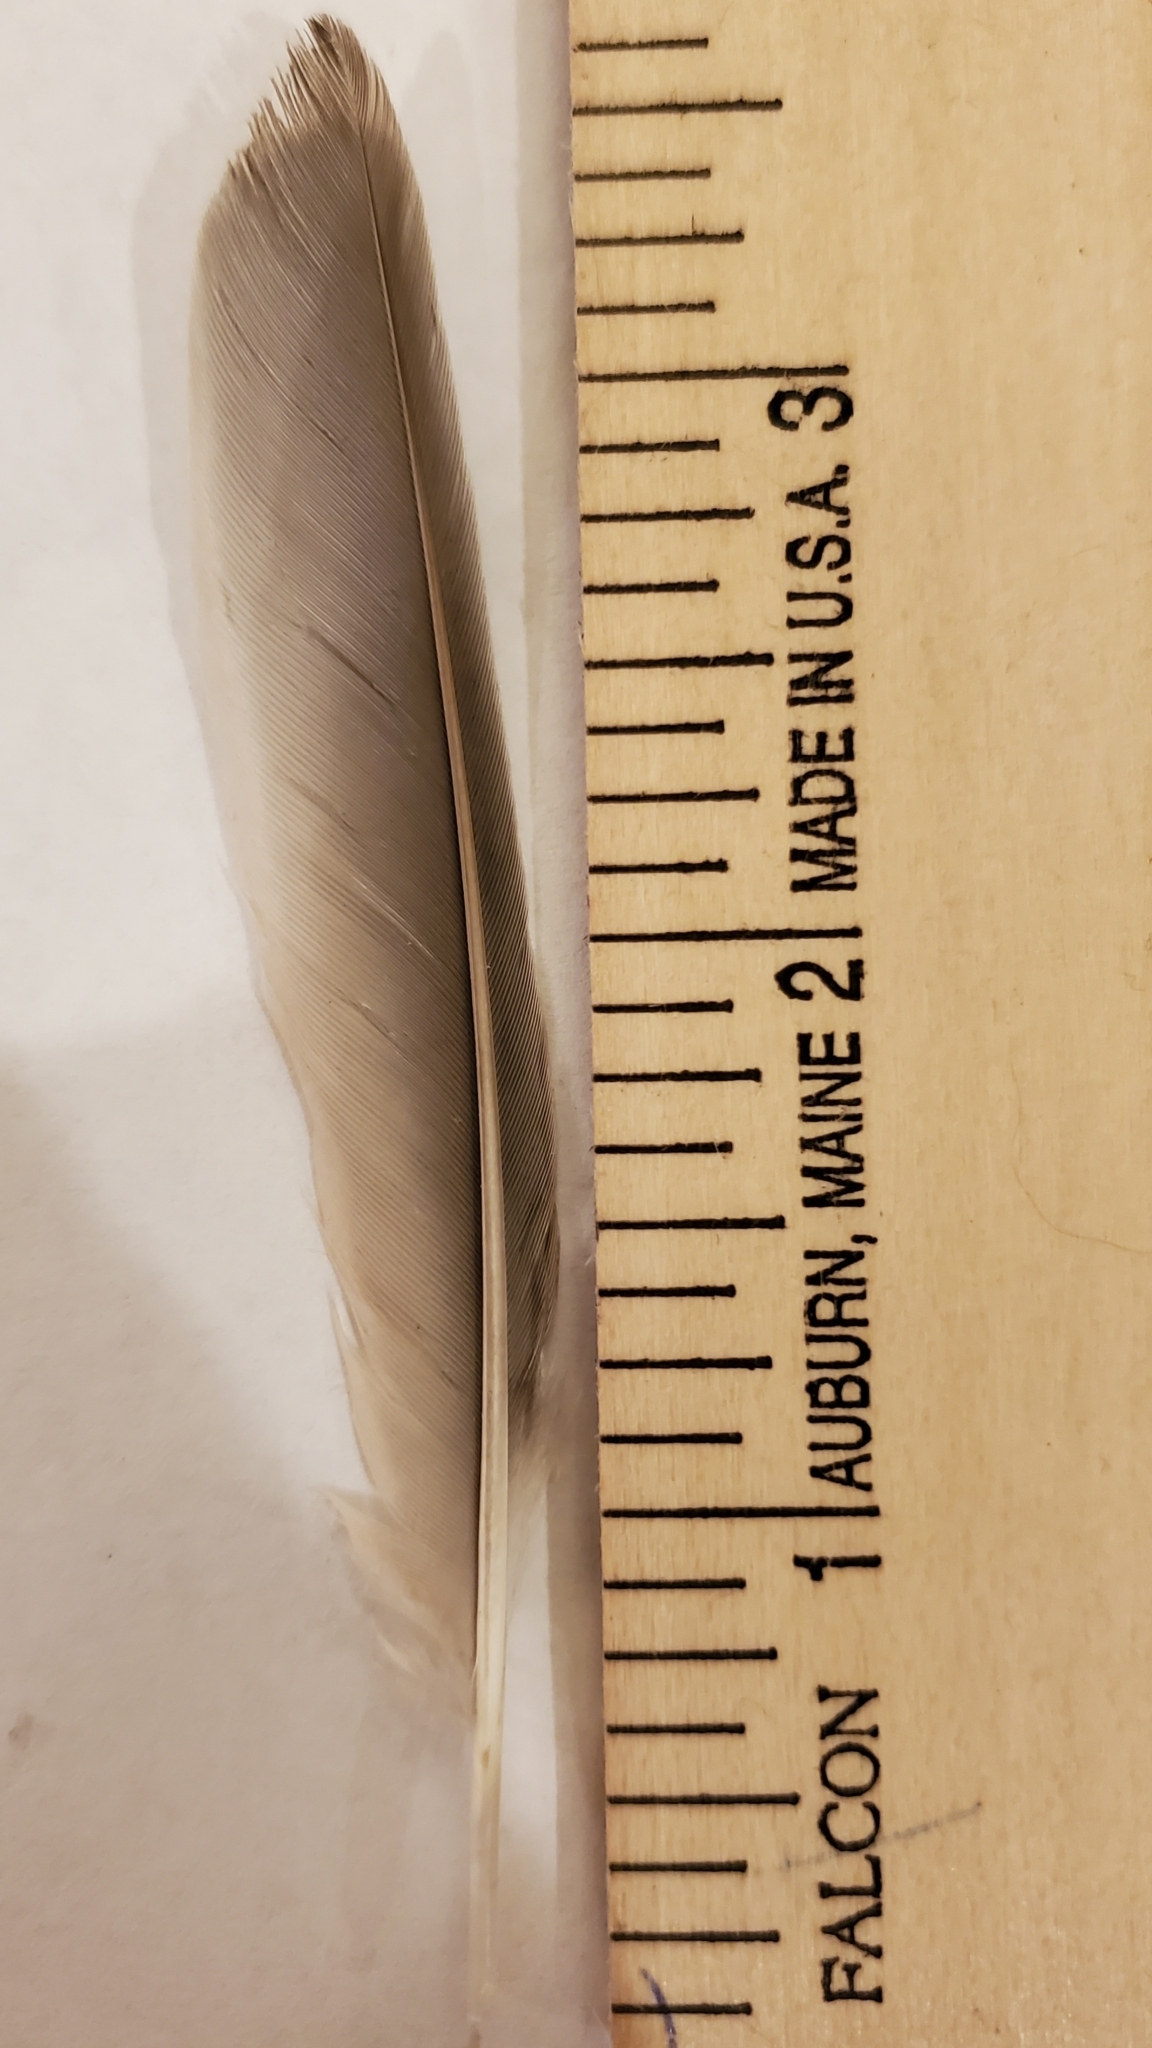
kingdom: Animalia
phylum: Chordata
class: Aves
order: Passeriformes
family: Turdidae
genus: Turdus
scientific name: Turdus migratorius
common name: American robin
